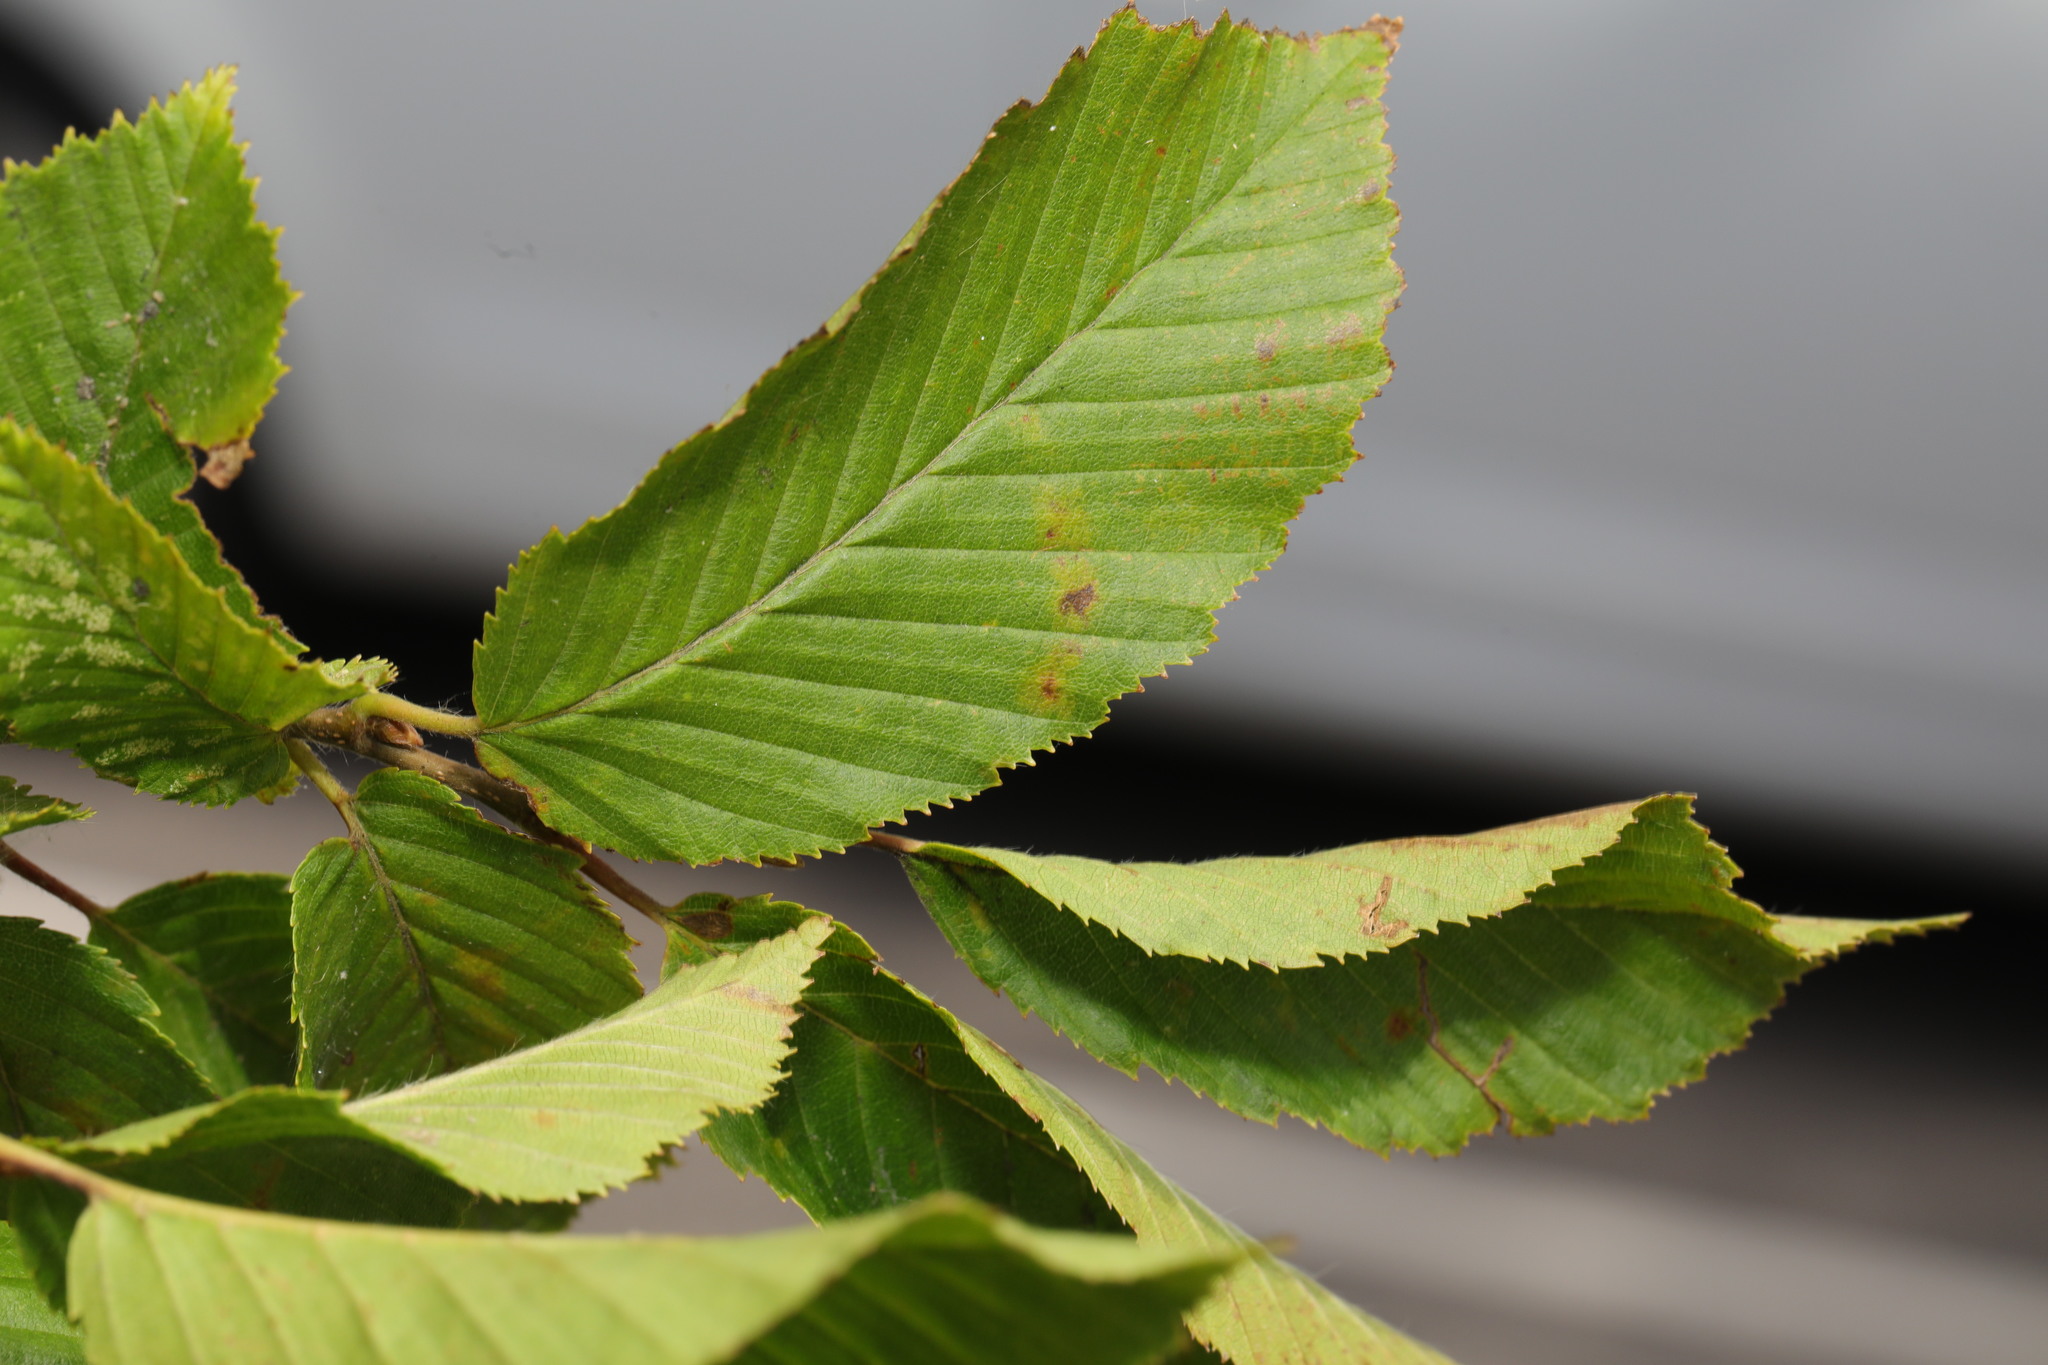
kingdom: Plantae
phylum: Tracheophyta
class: Magnoliopsida
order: Fagales
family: Betulaceae
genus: Carpinus
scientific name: Carpinus betulus
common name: Hornbeam
